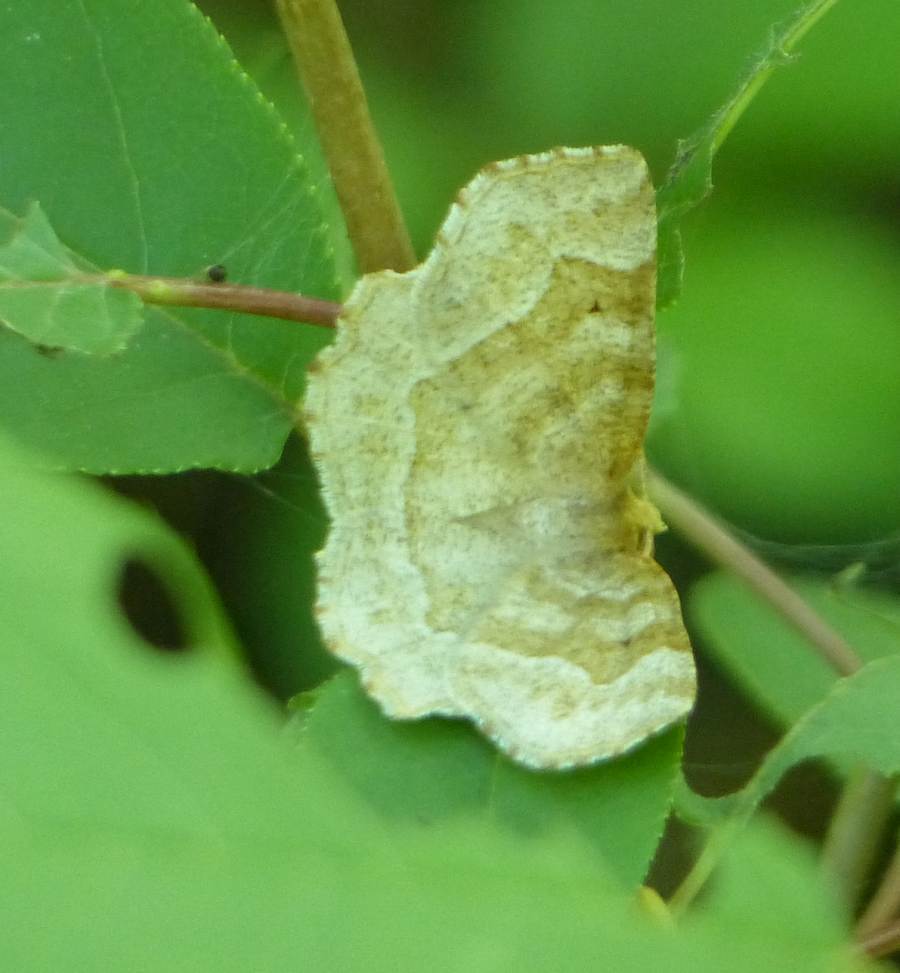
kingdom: Animalia
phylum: Arthropoda
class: Insecta
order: Lepidoptera
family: Geometridae
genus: Metarranthis
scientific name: Metarranthis indeclinata
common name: Pale metarranthis
